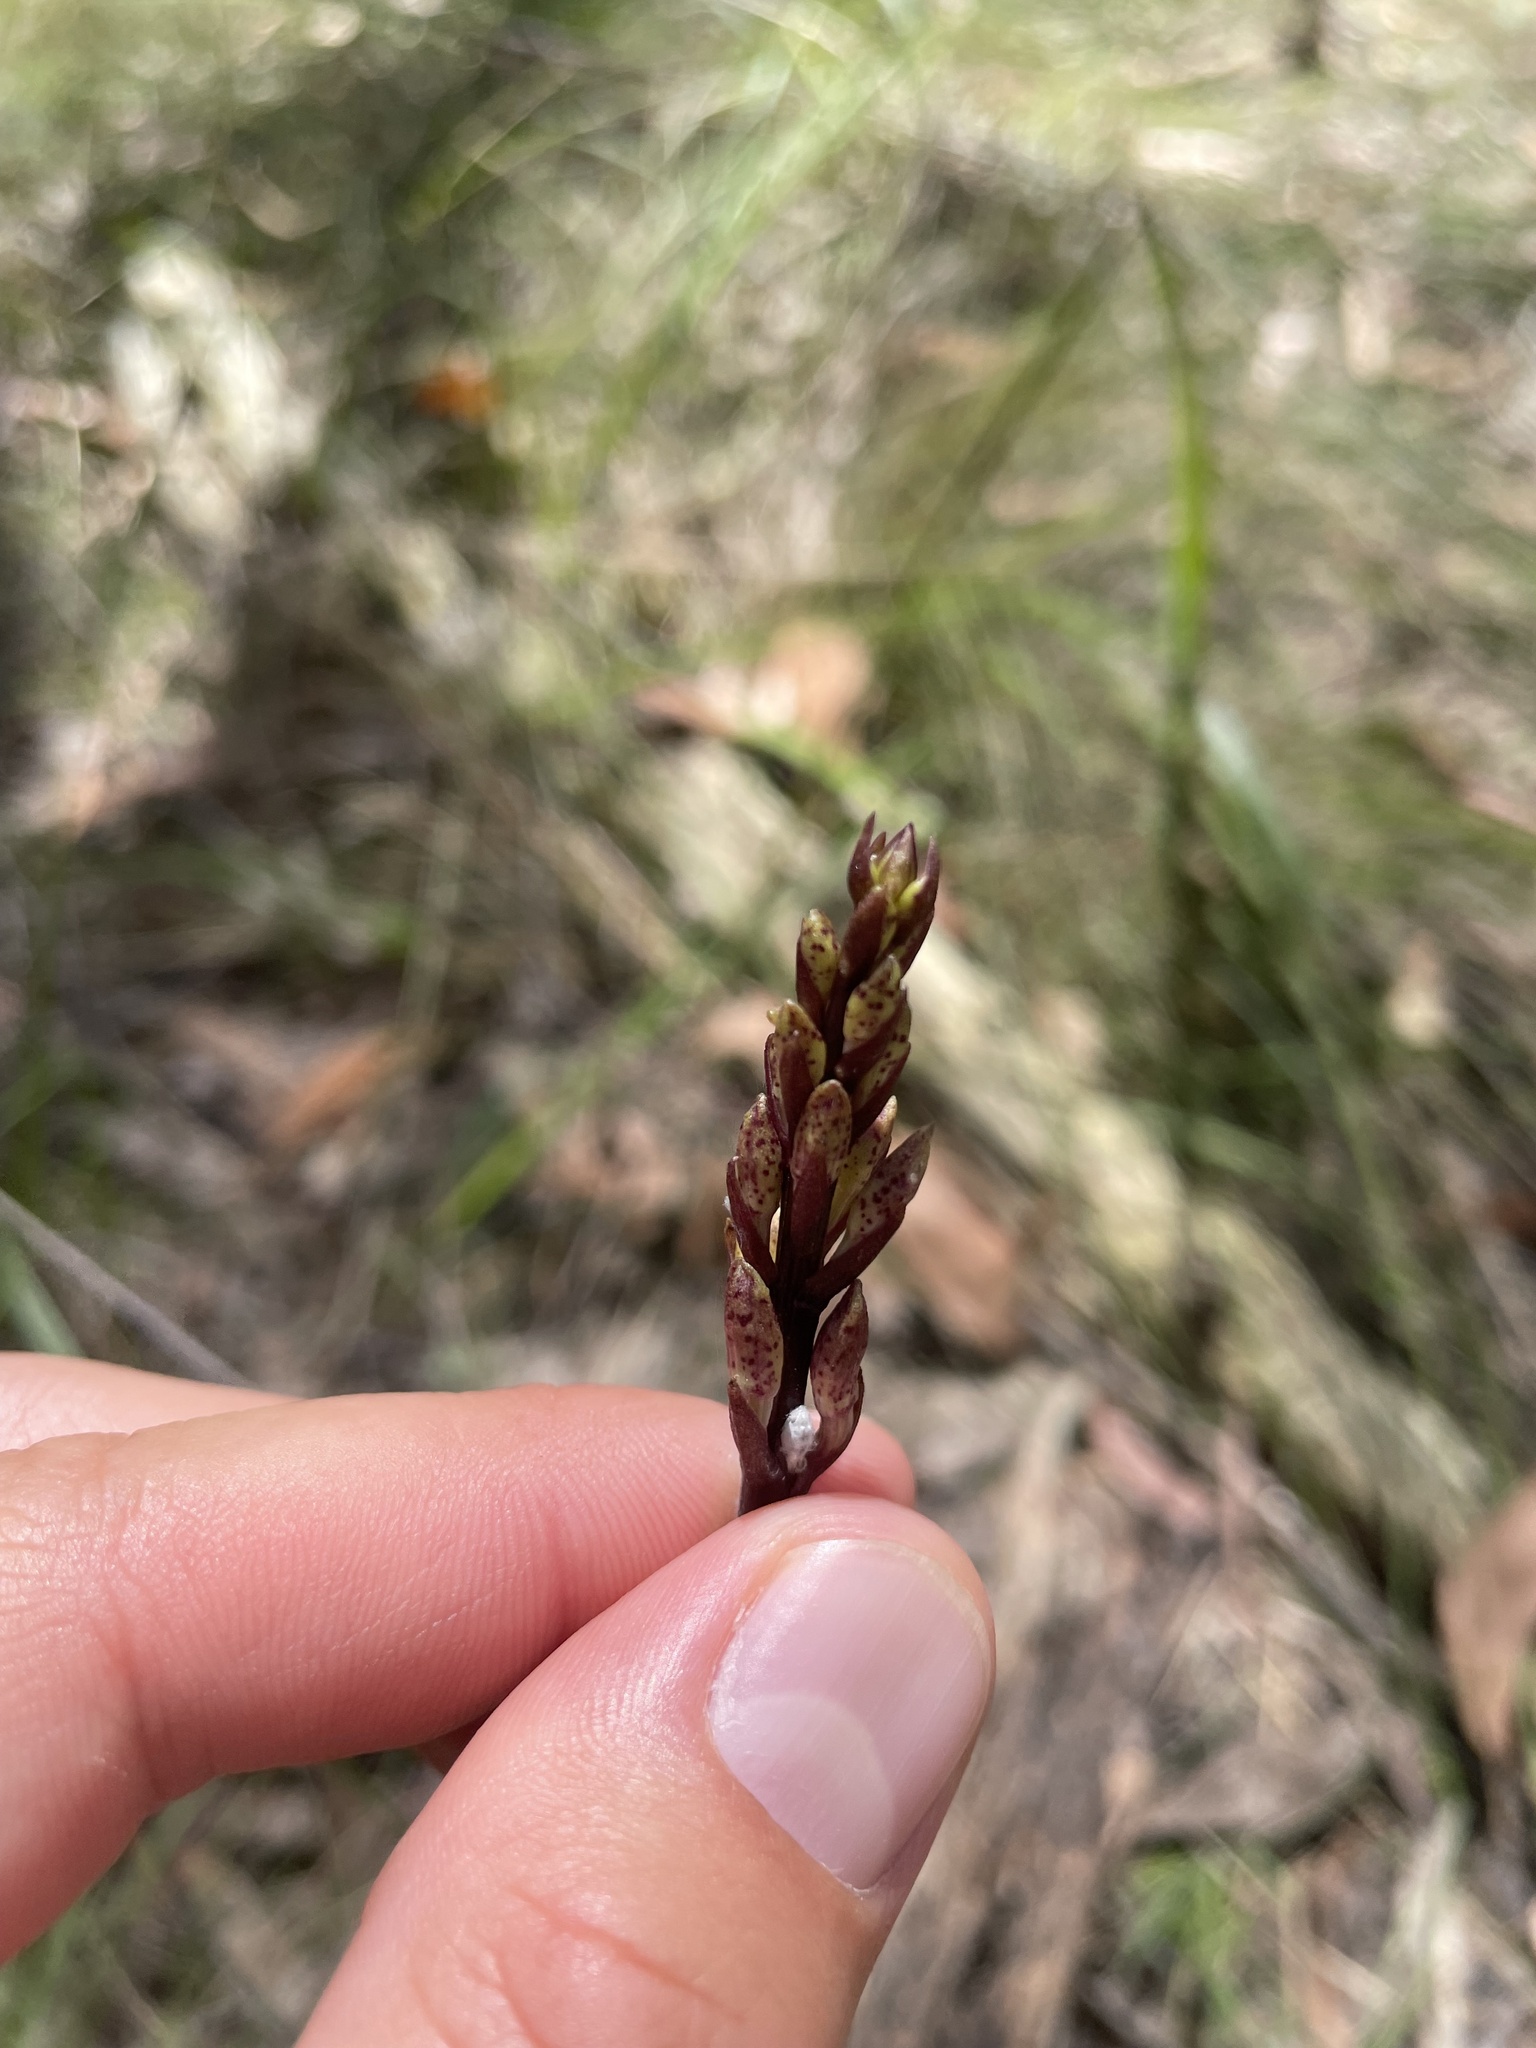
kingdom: Plantae
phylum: Tracheophyta
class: Liliopsida
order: Asparagales
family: Orchidaceae
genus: Dipodium
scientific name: Dipodium roseum
